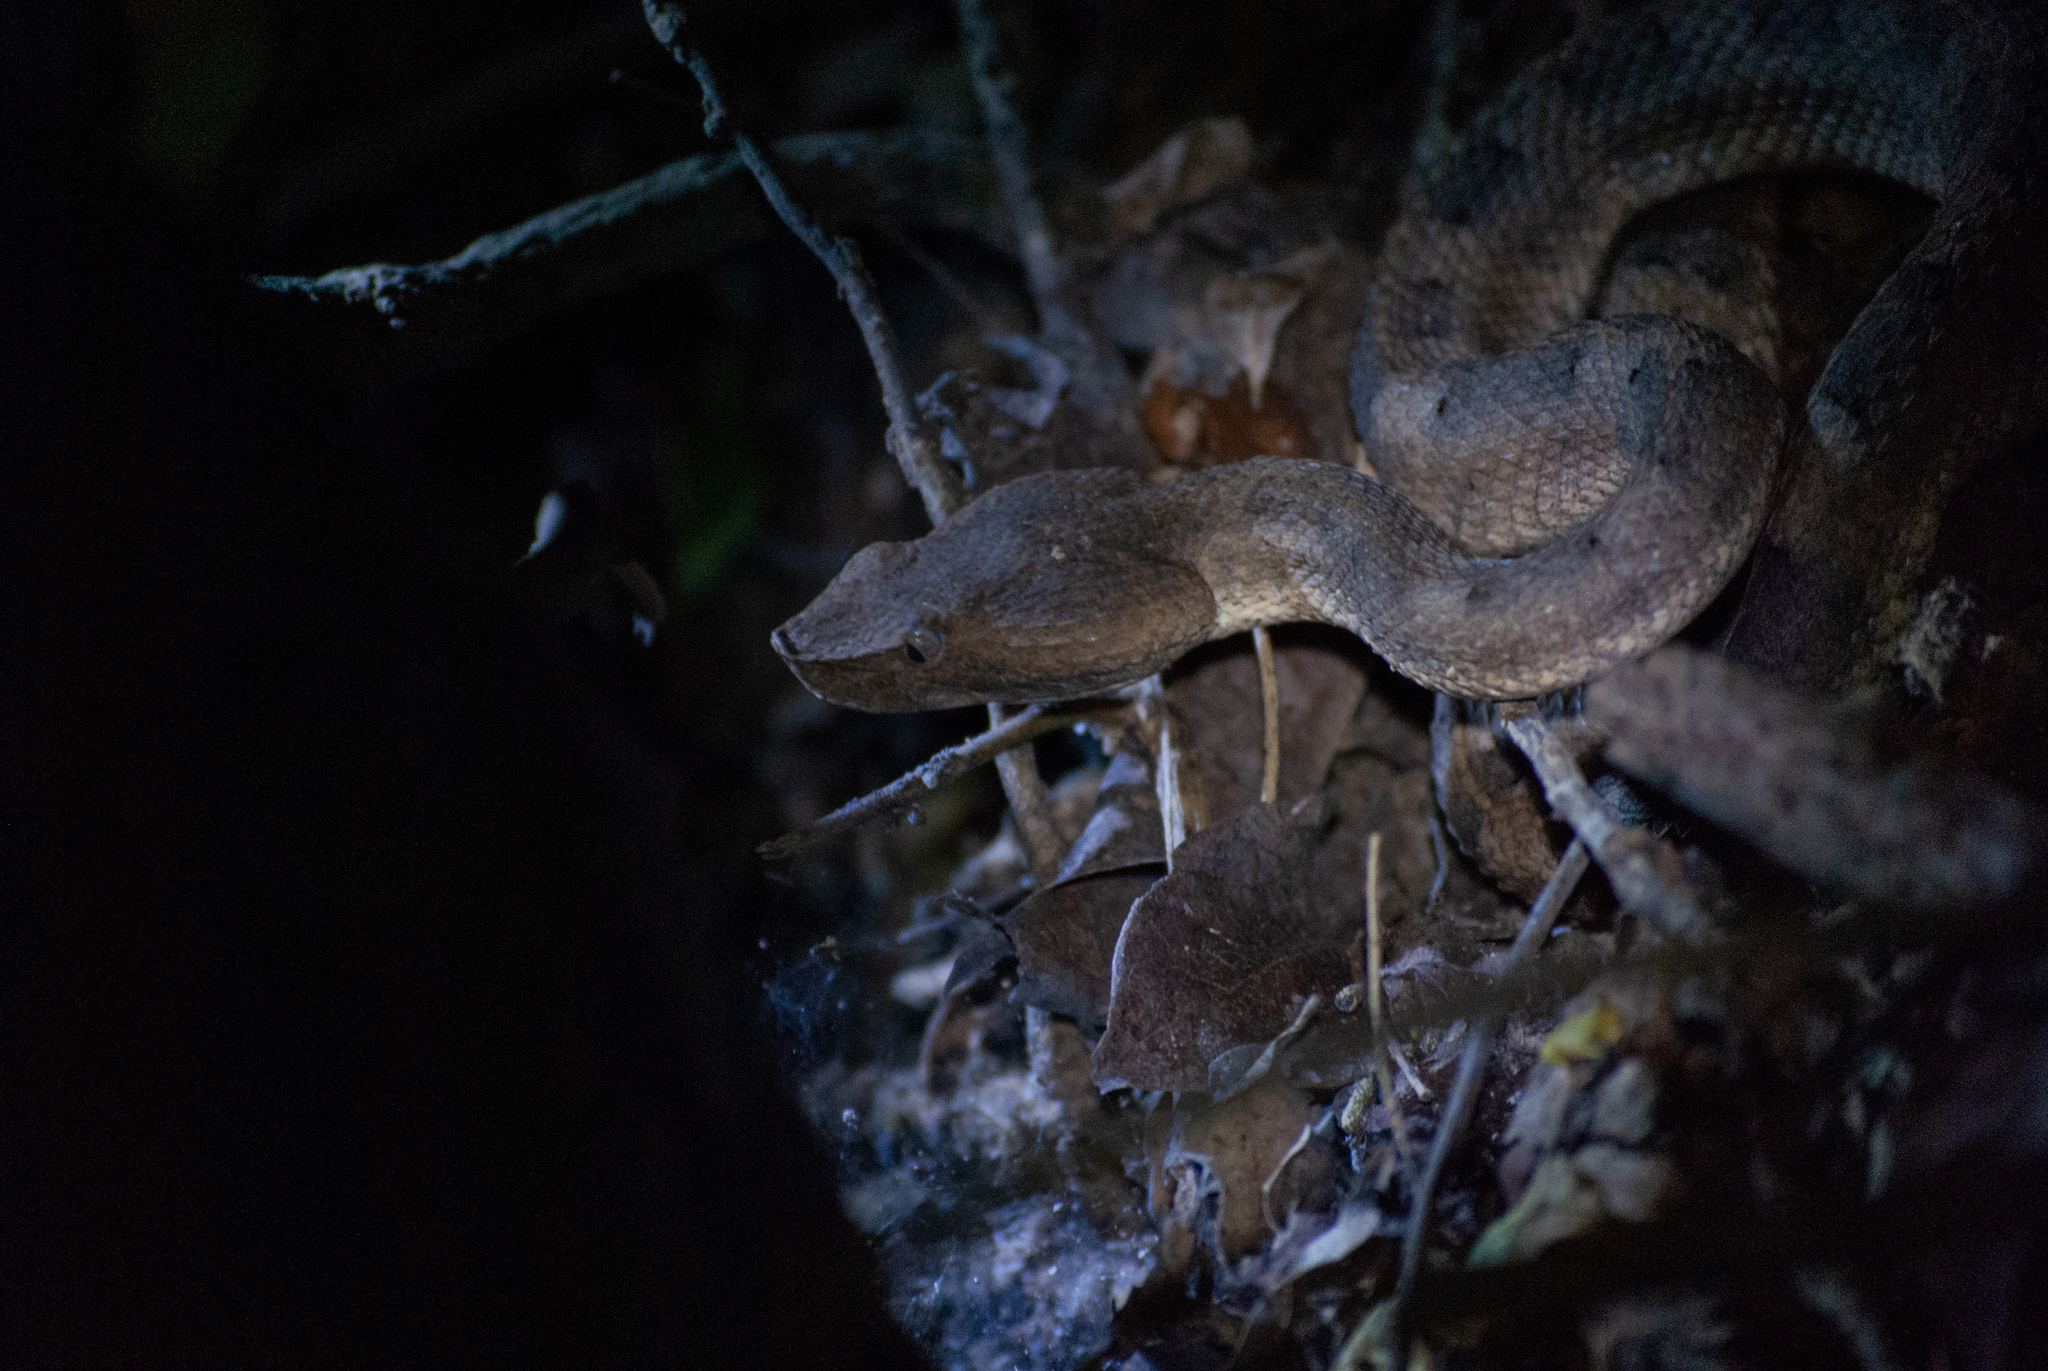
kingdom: Animalia
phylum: Chordata
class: Squamata
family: Viperidae
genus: Porthidium
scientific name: Porthidium lansbergii
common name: Lansberg's hognosed pit viper
